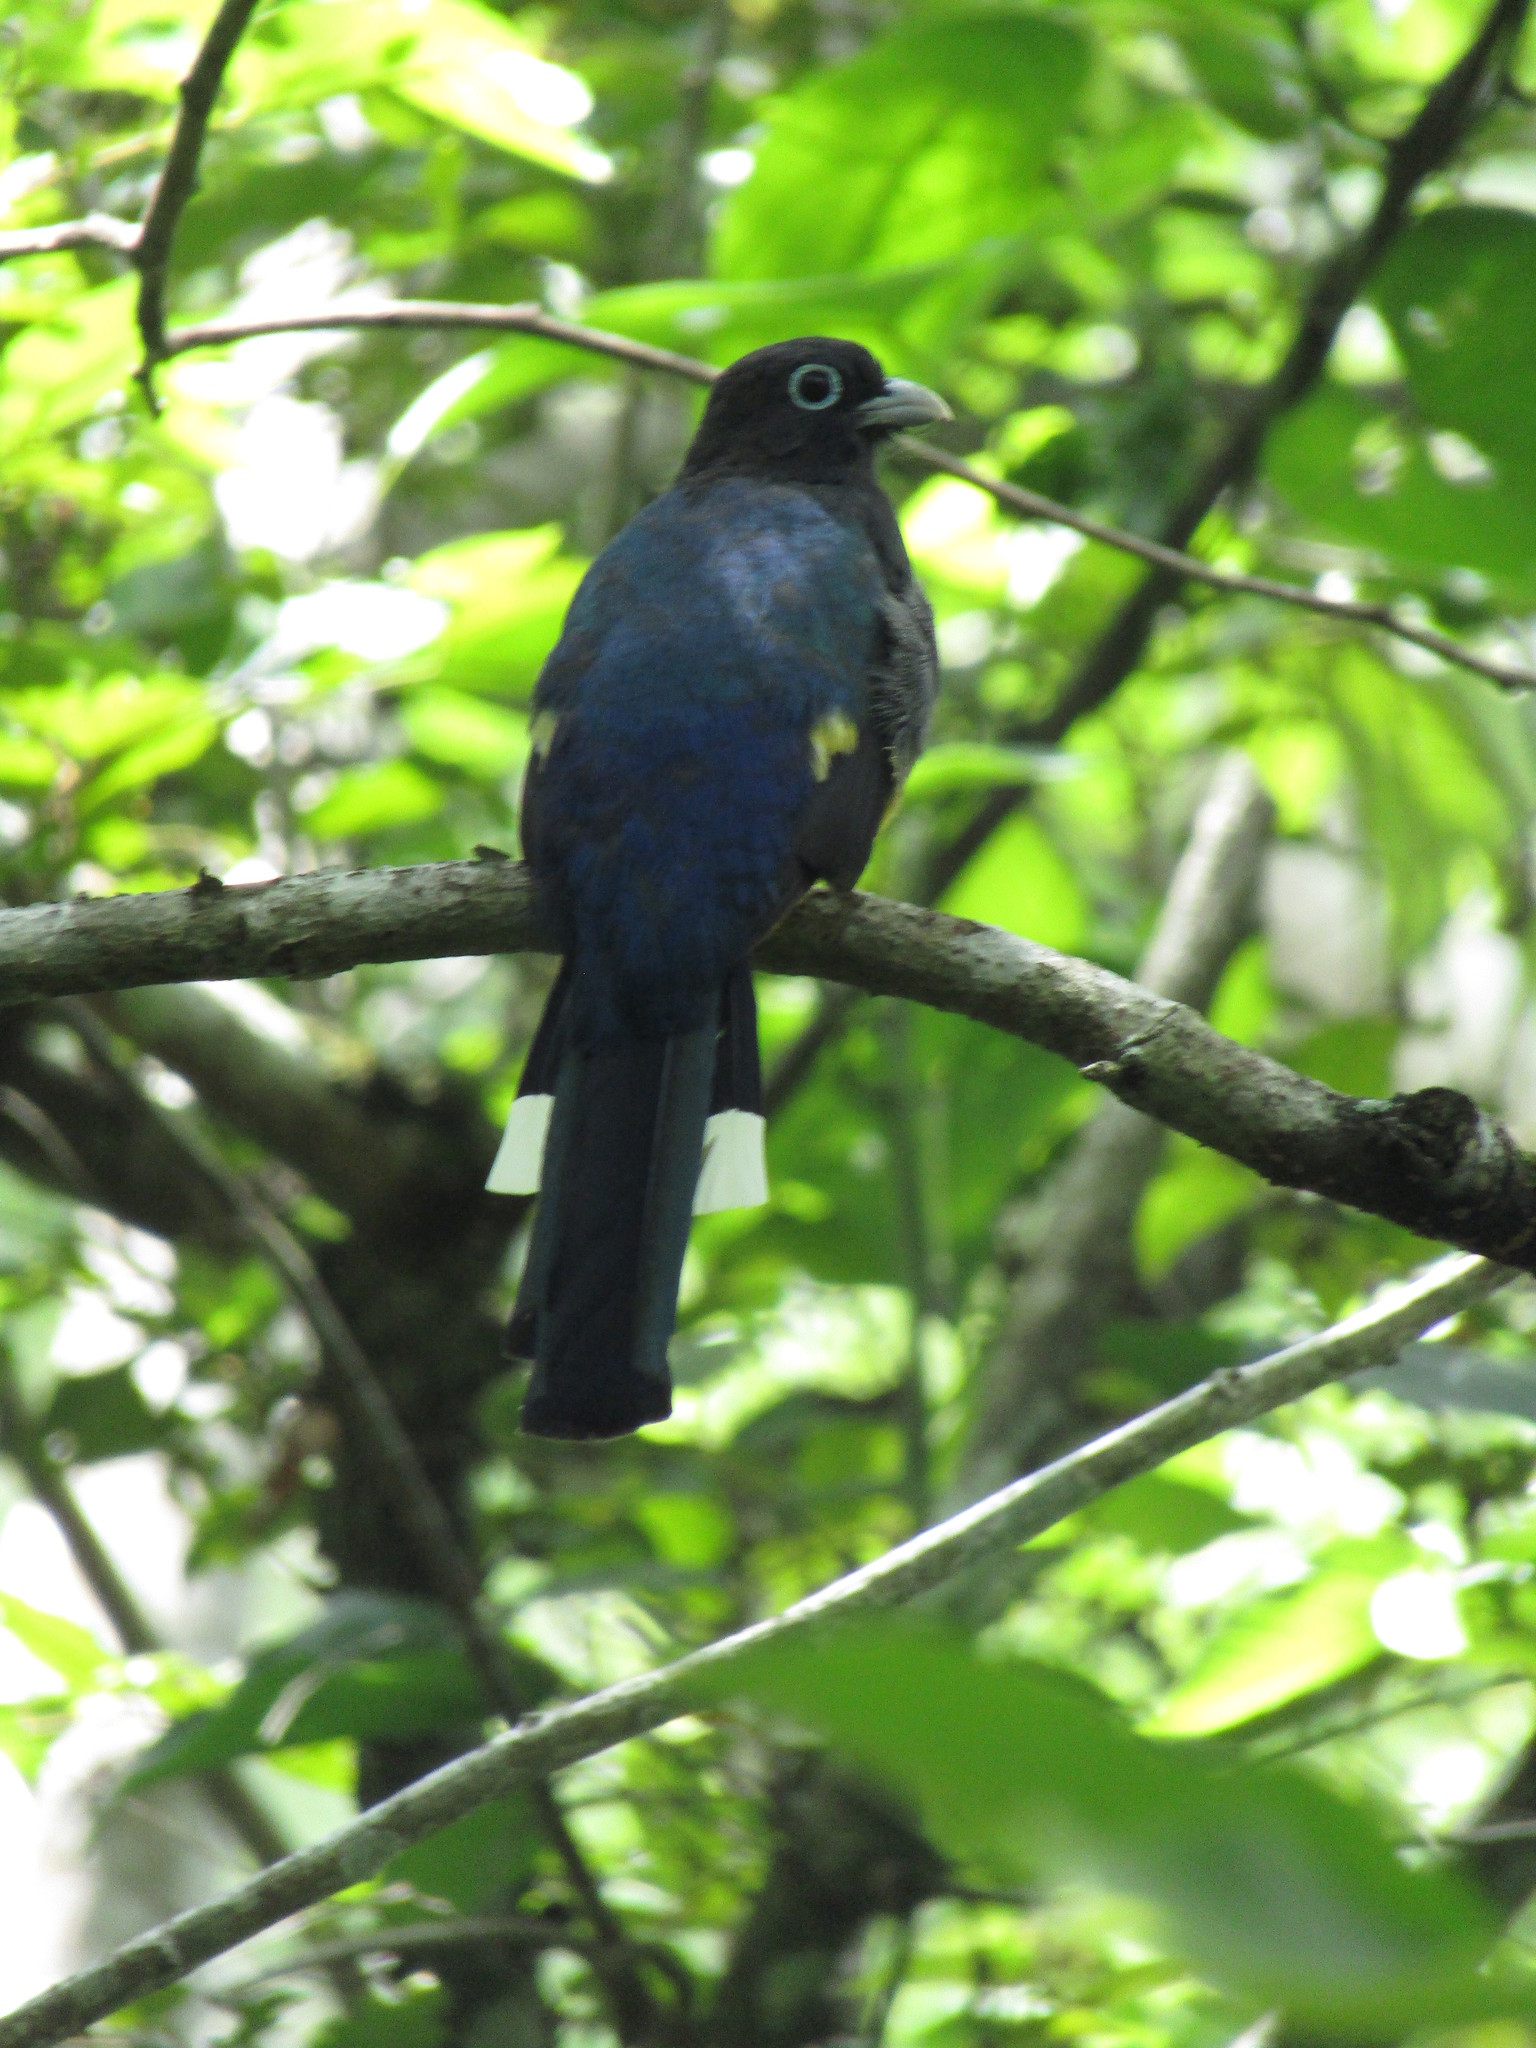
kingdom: Animalia
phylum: Chordata
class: Aves
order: Trogoniformes
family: Trogonidae
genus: Trogon
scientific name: Trogon melanocephalus
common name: Black-headed trogon
